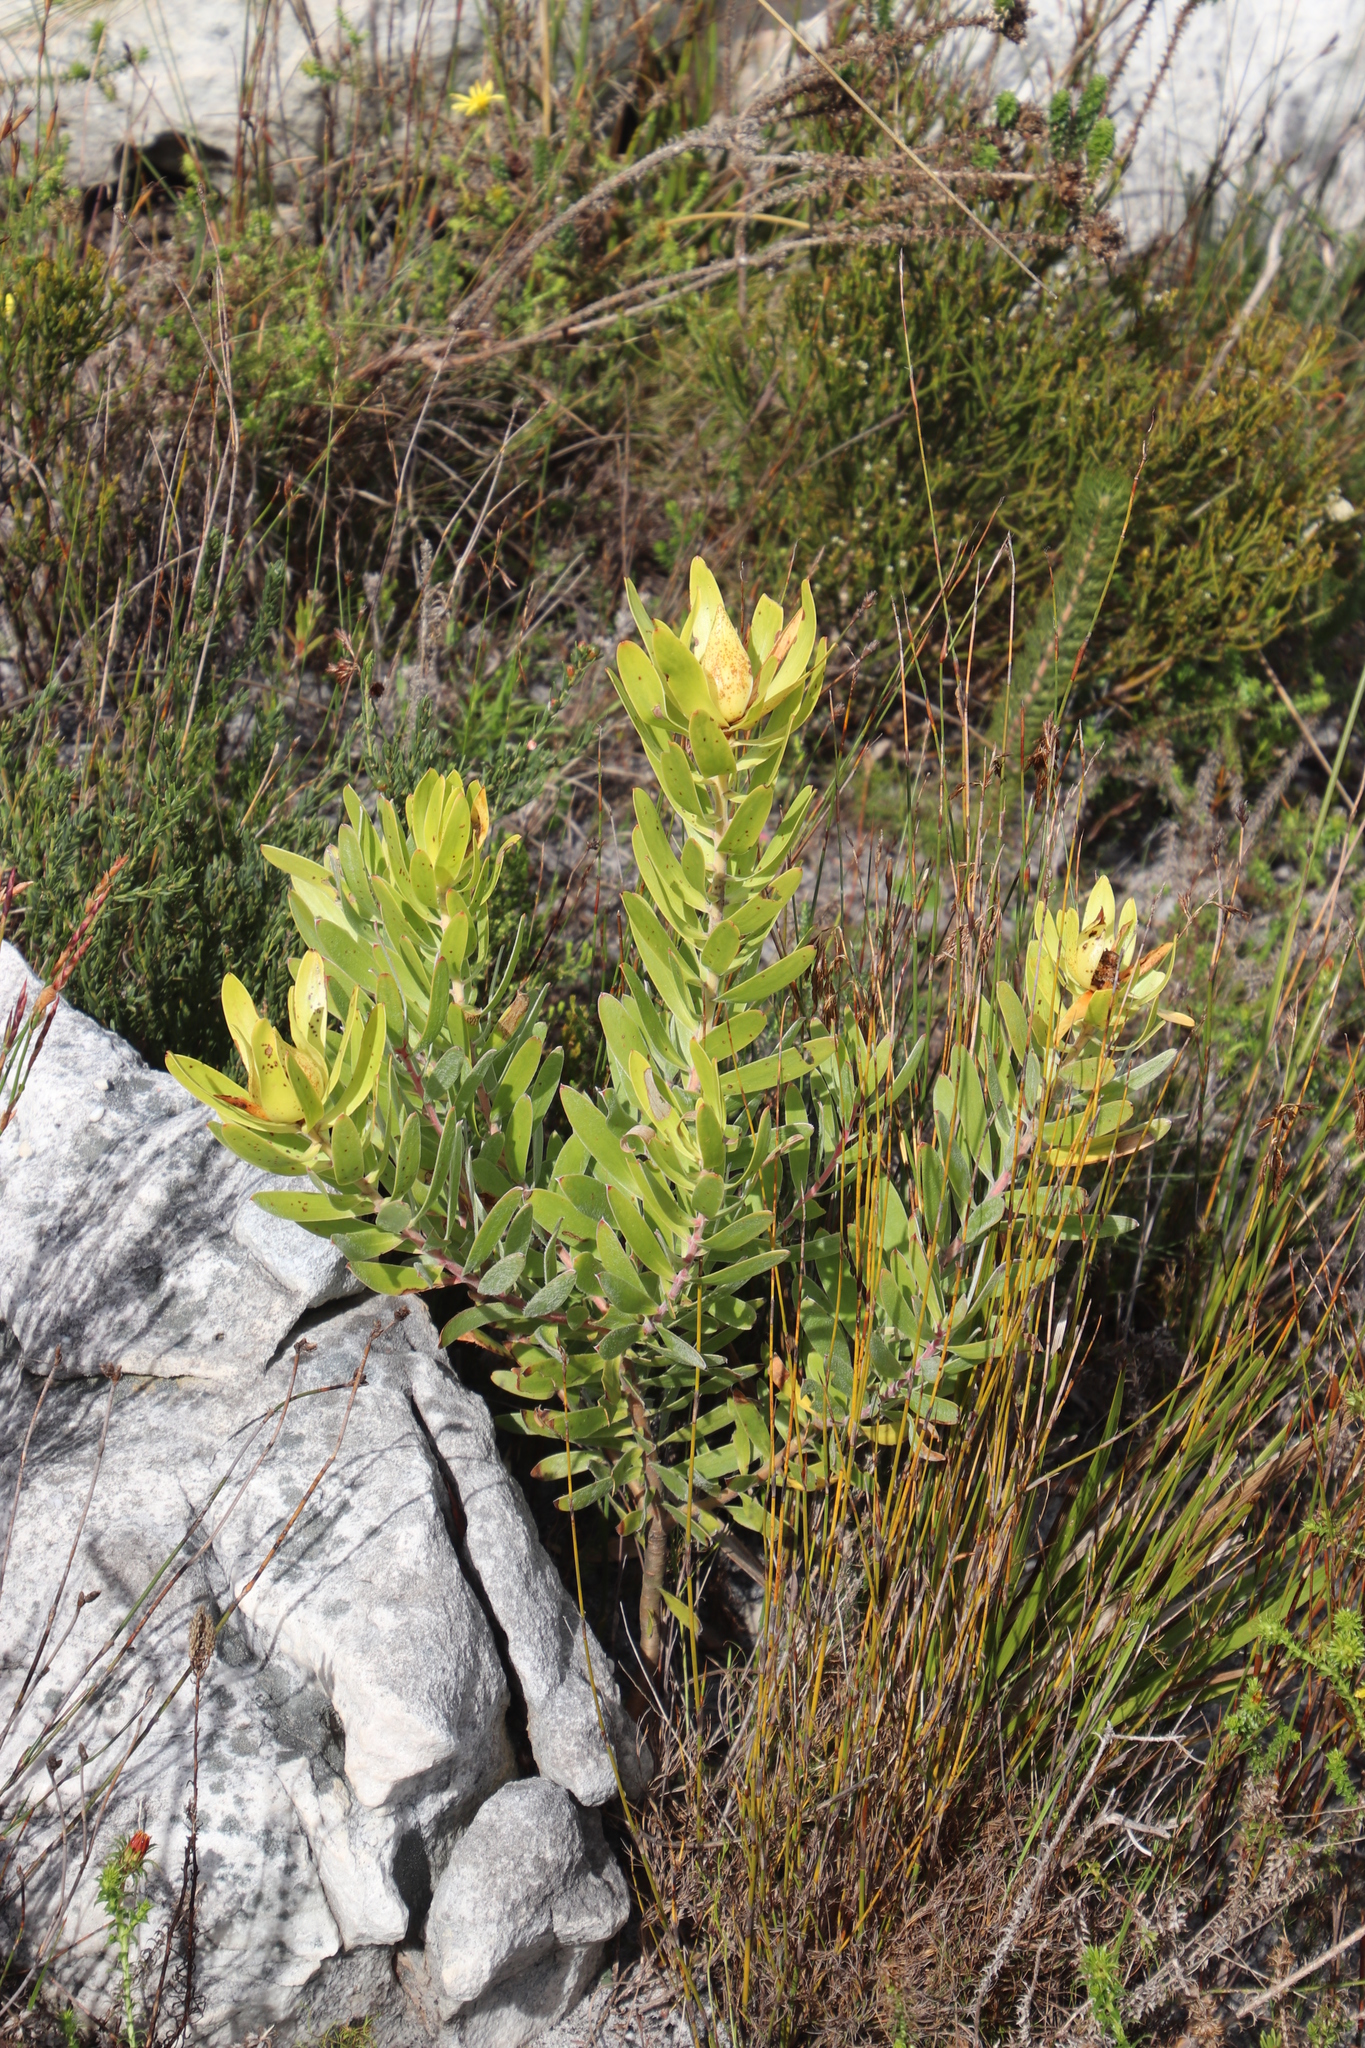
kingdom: Plantae
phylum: Tracheophyta
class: Magnoliopsida
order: Proteales
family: Proteaceae
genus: Leucadendron
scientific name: Leucadendron laureolum
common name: Golden sunshinebush
